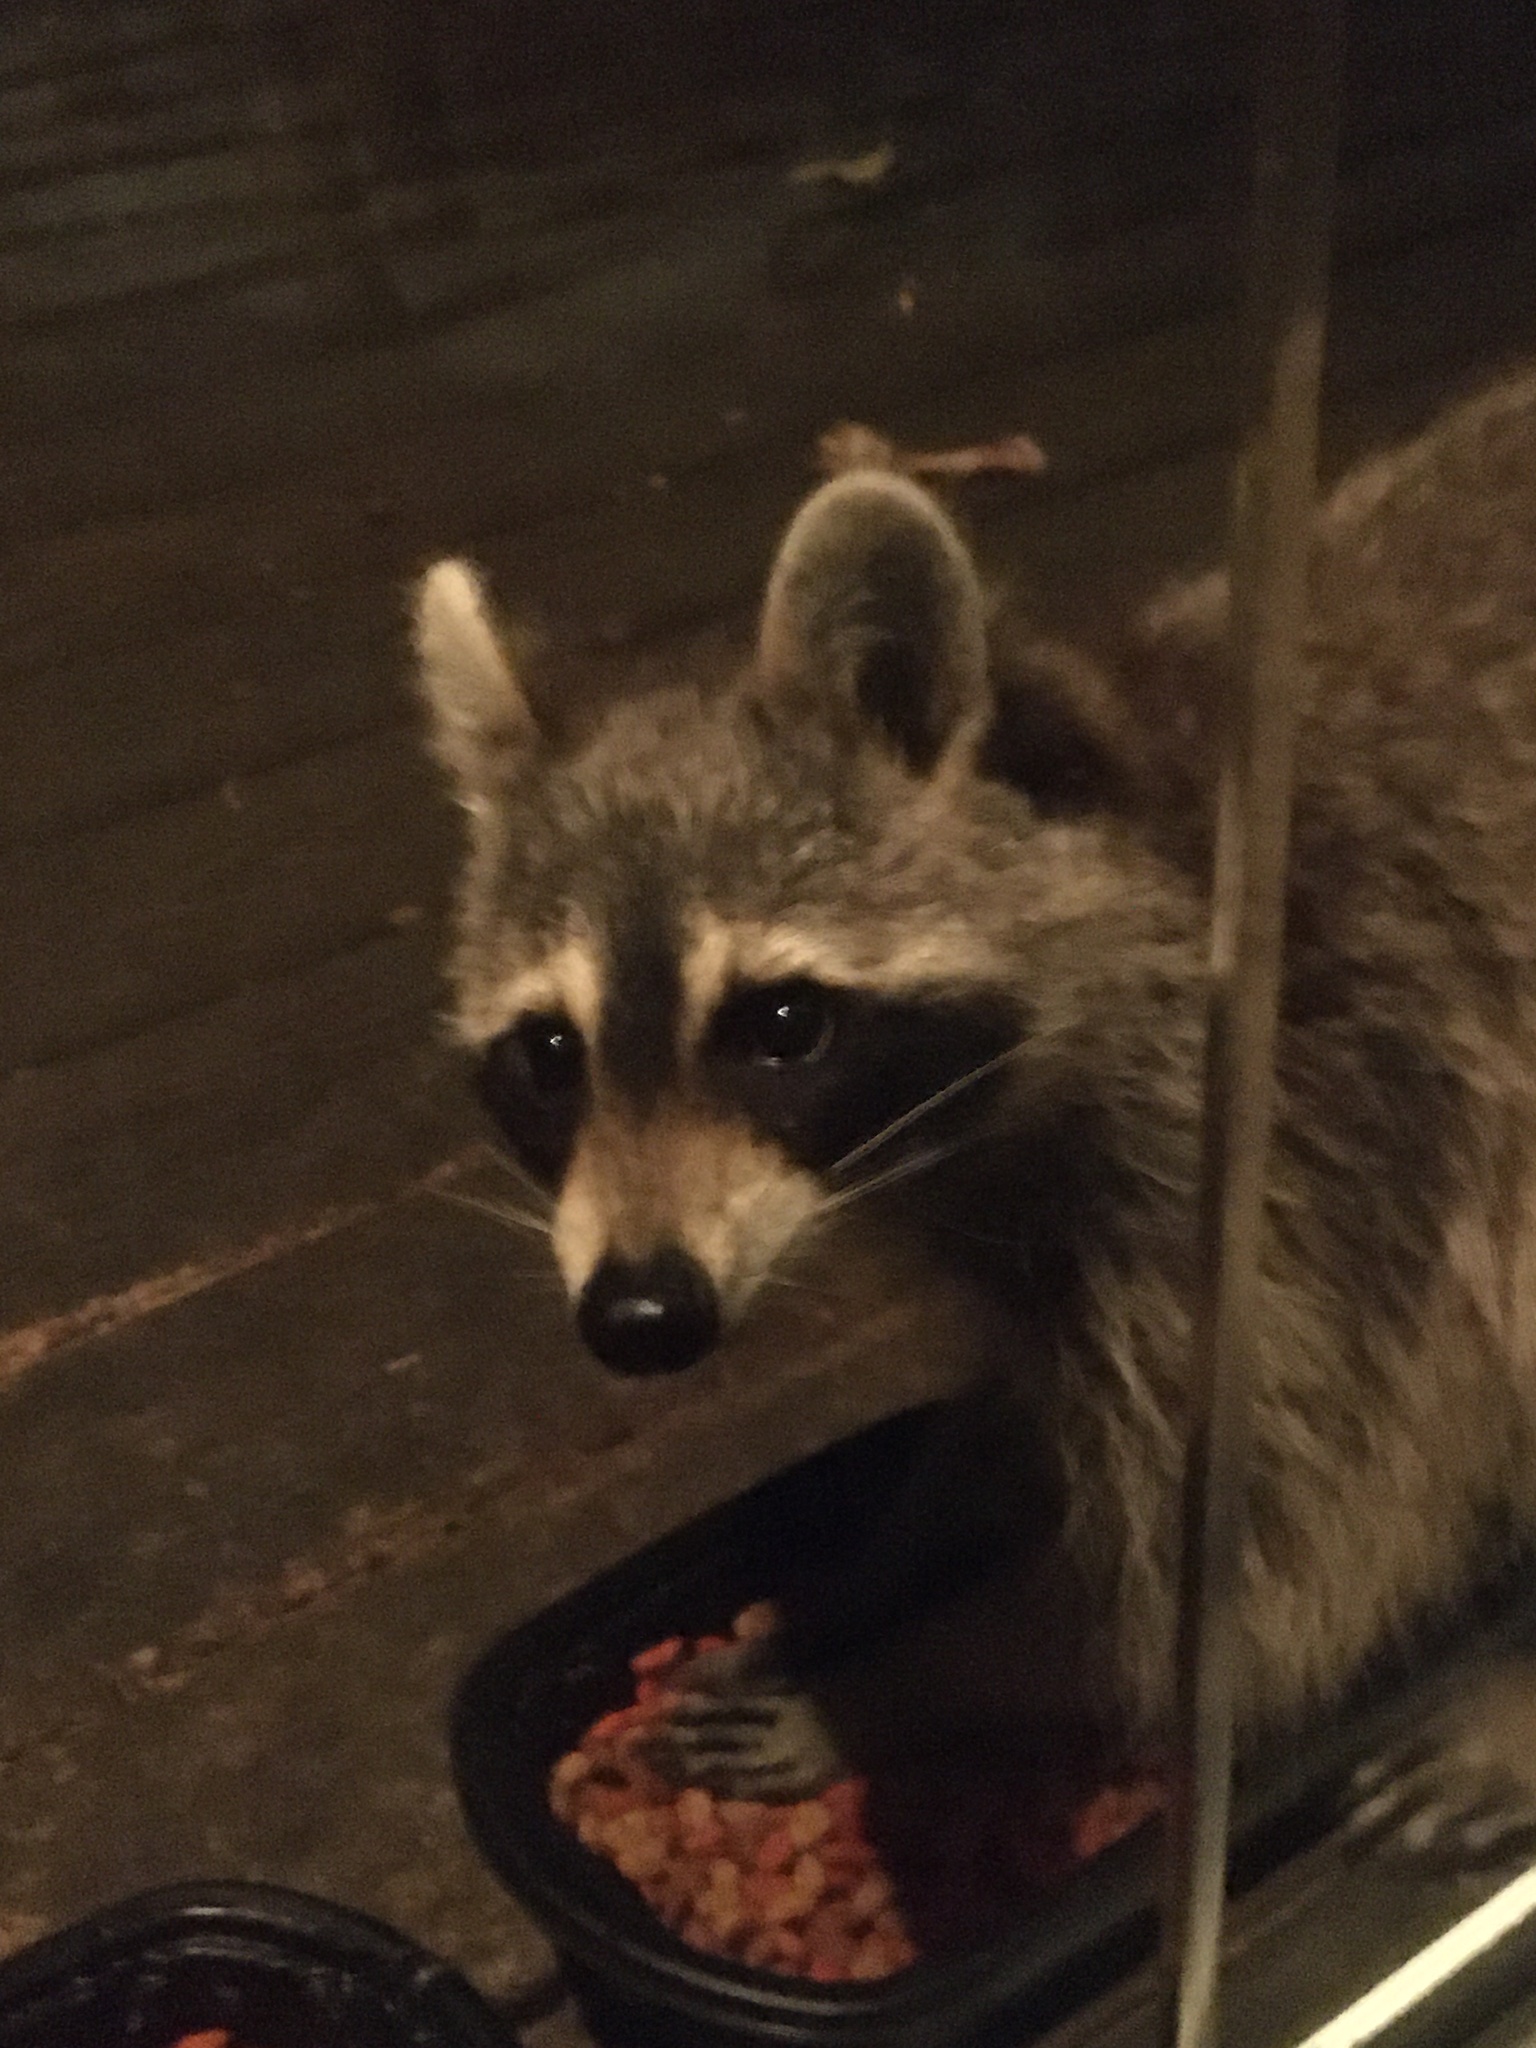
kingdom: Animalia
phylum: Chordata
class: Mammalia
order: Carnivora
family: Procyonidae
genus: Procyon
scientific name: Procyon lotor
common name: Raccoon
